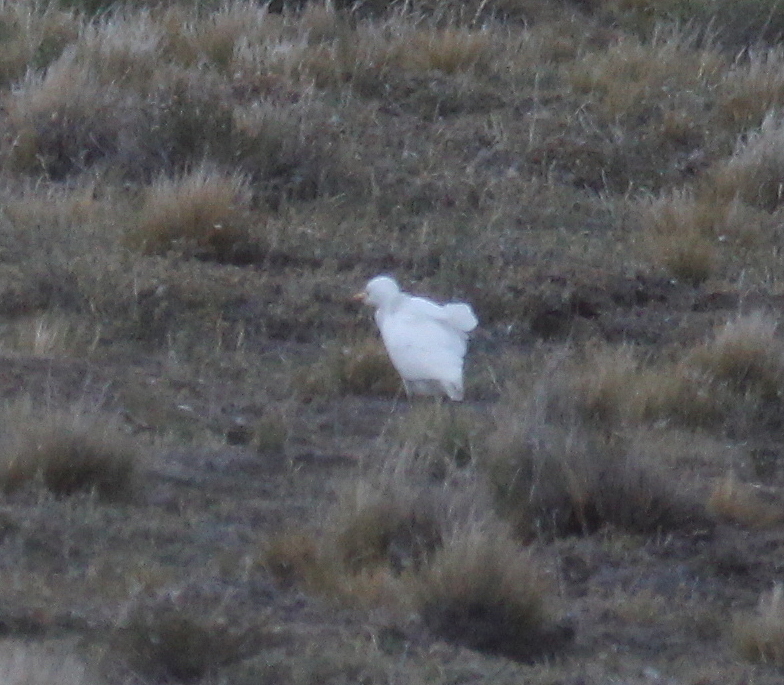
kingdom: Animalia
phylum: Chordata
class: Aves
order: Pelecaniformes
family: Ardeidae
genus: Bubulcus
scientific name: Bubulcus ibis
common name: Cattle egret
